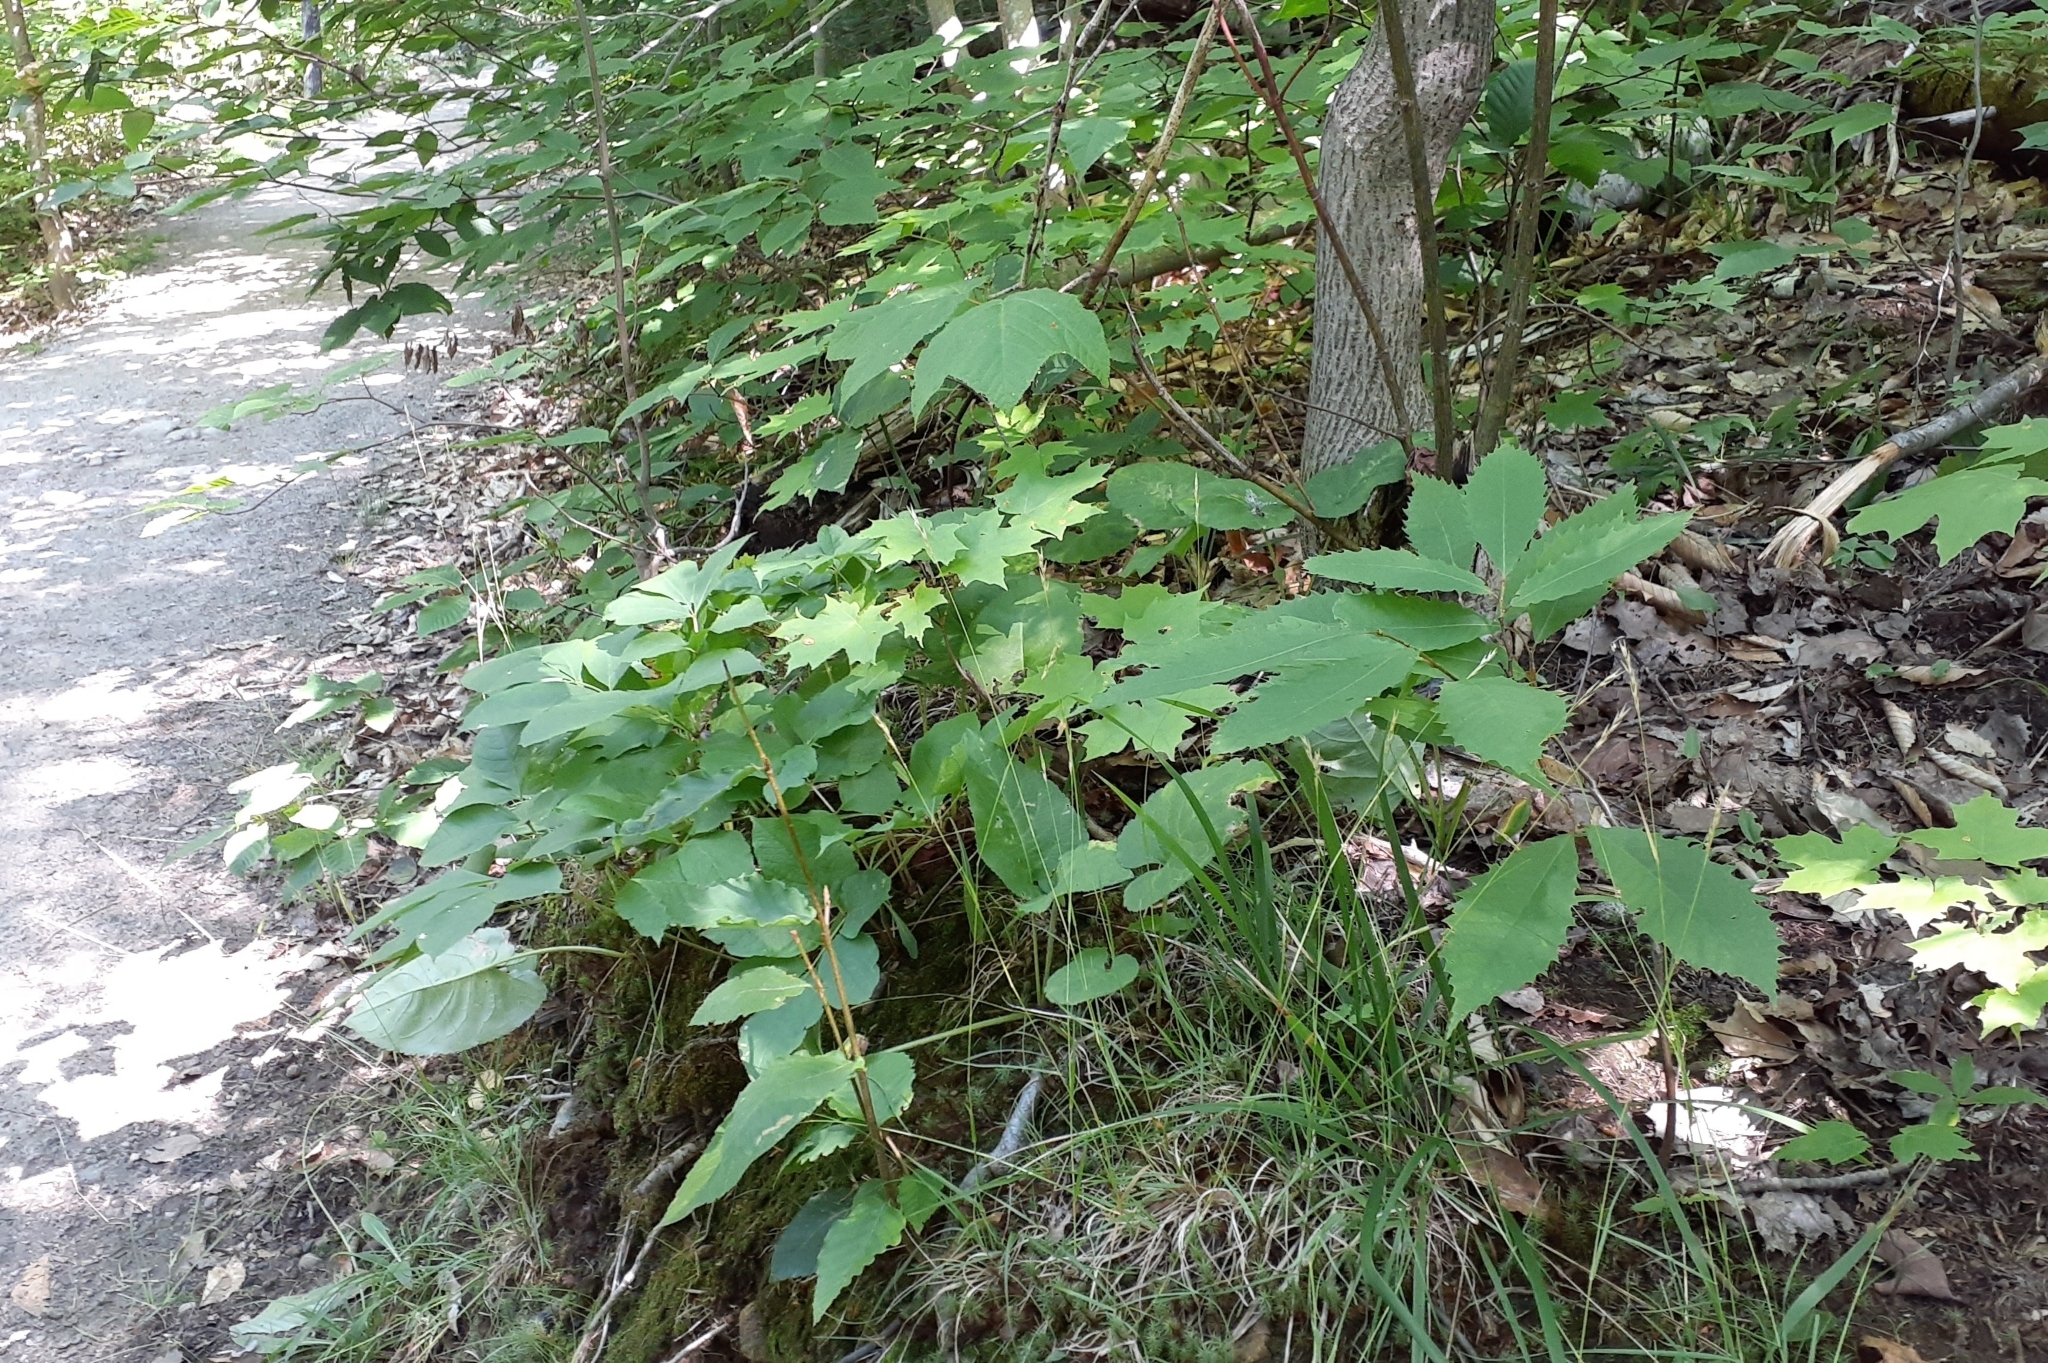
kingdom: Plantae
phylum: Tracheophyta
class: Magnoliopsida
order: Fagales
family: Fagaceae
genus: Castanea
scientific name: Castanea dentata
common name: American chestnut
